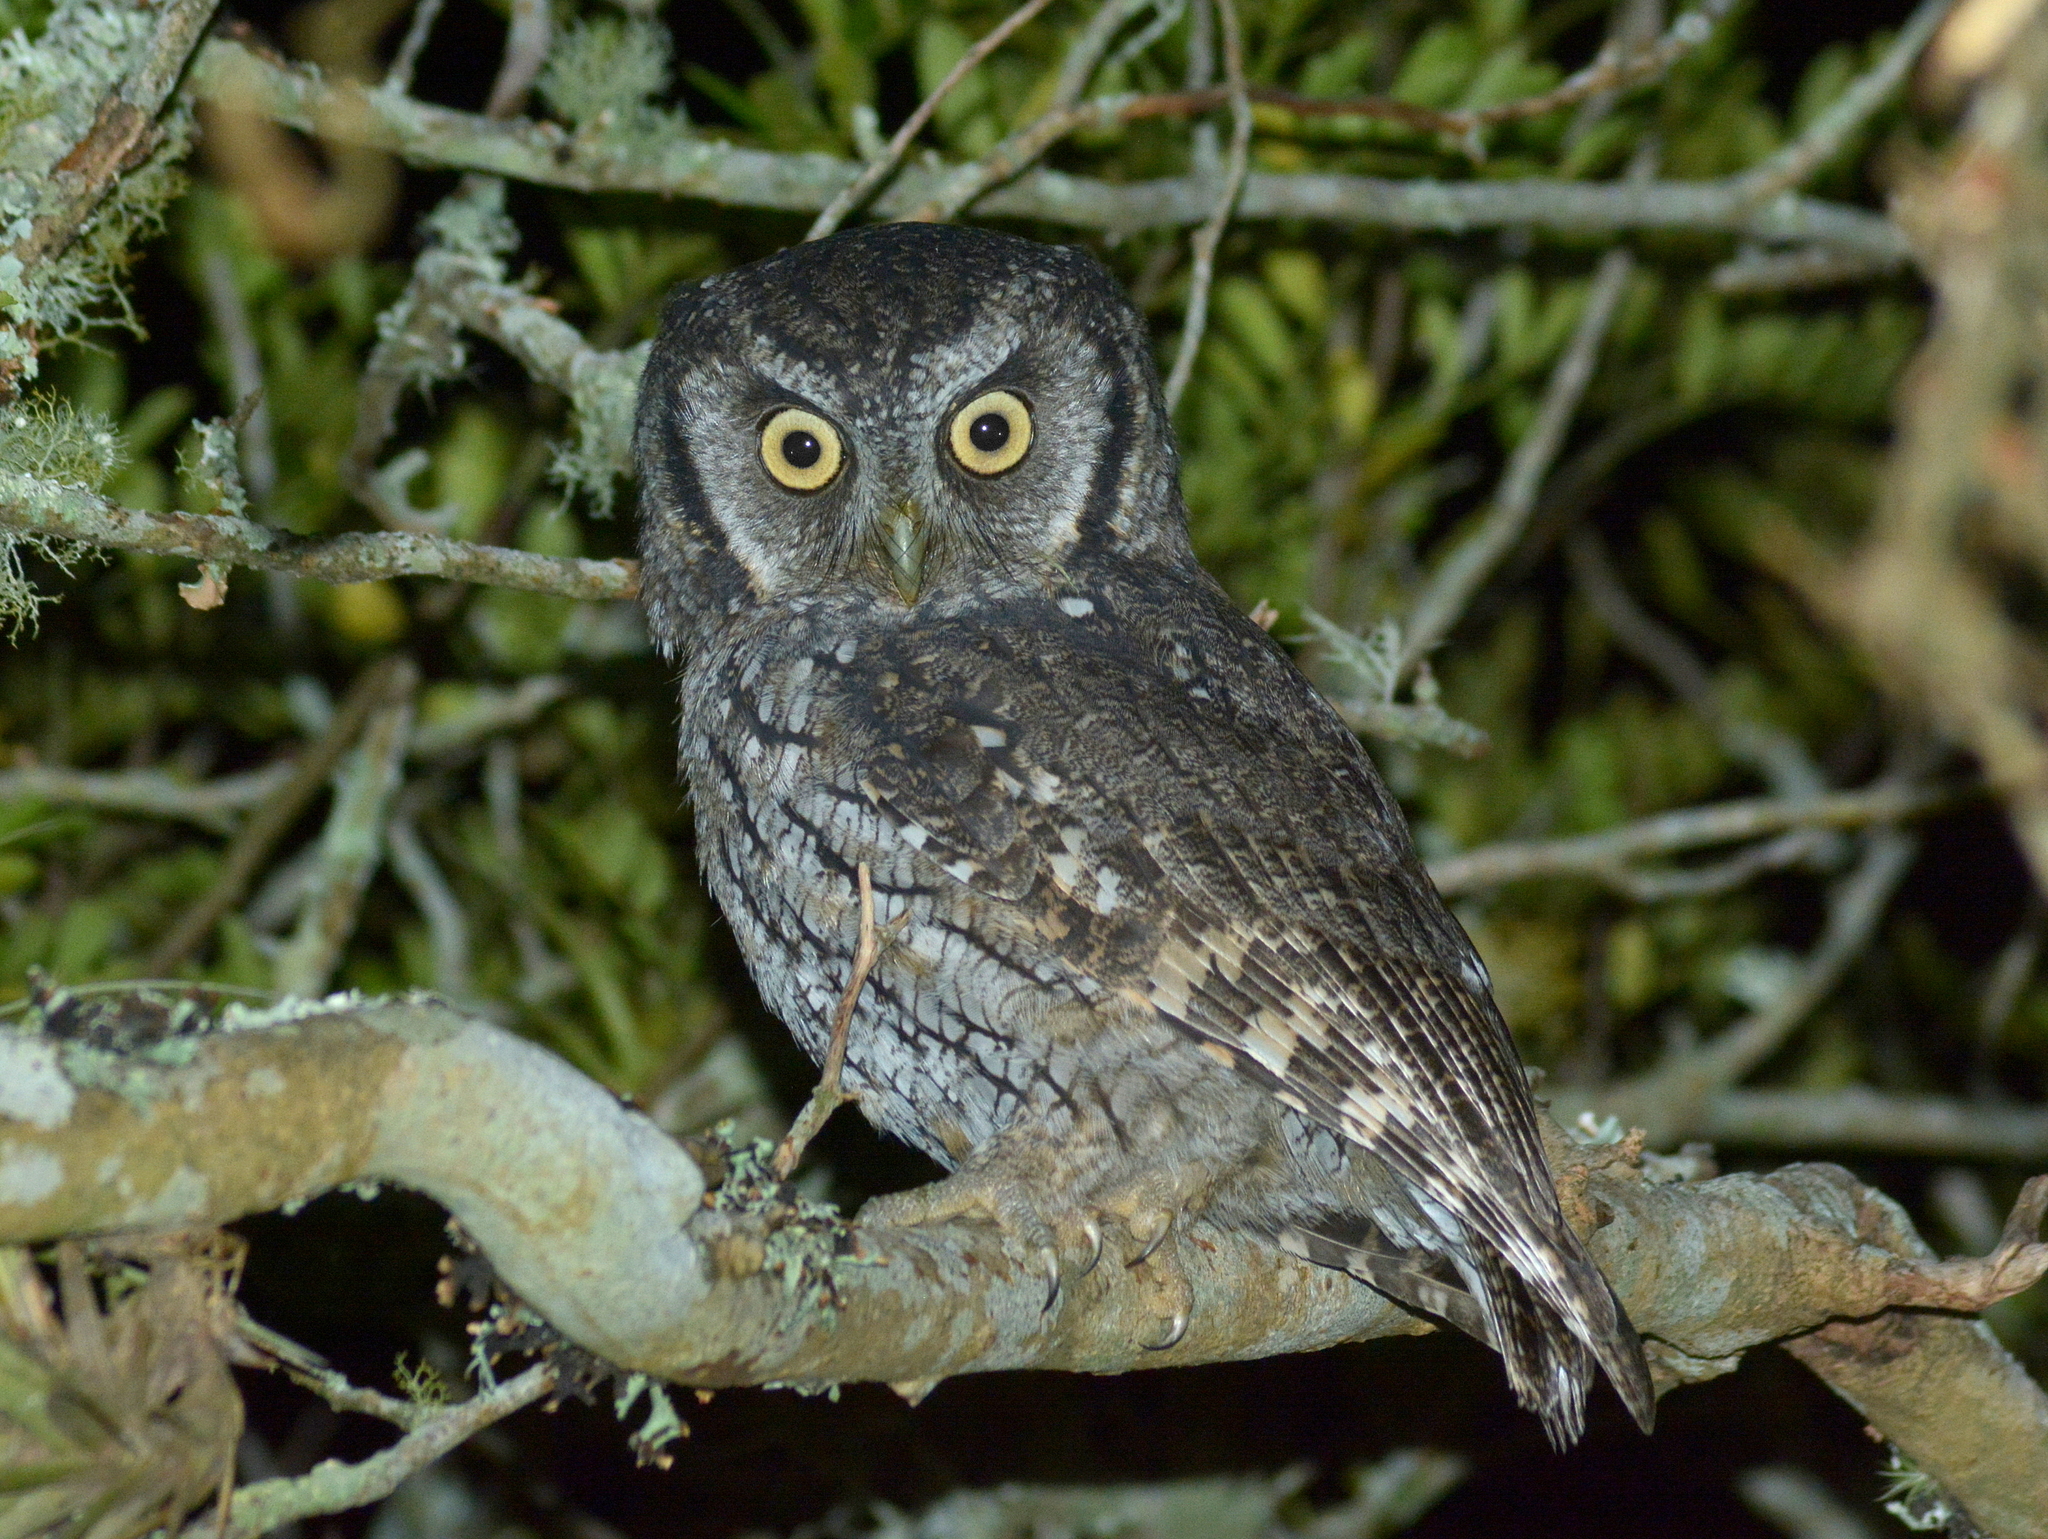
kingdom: Animalia
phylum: Chordata
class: Aves
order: Strigiformes
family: Strigidae
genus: Megascops
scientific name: Megascops choliba
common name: Tropical screech-owl
